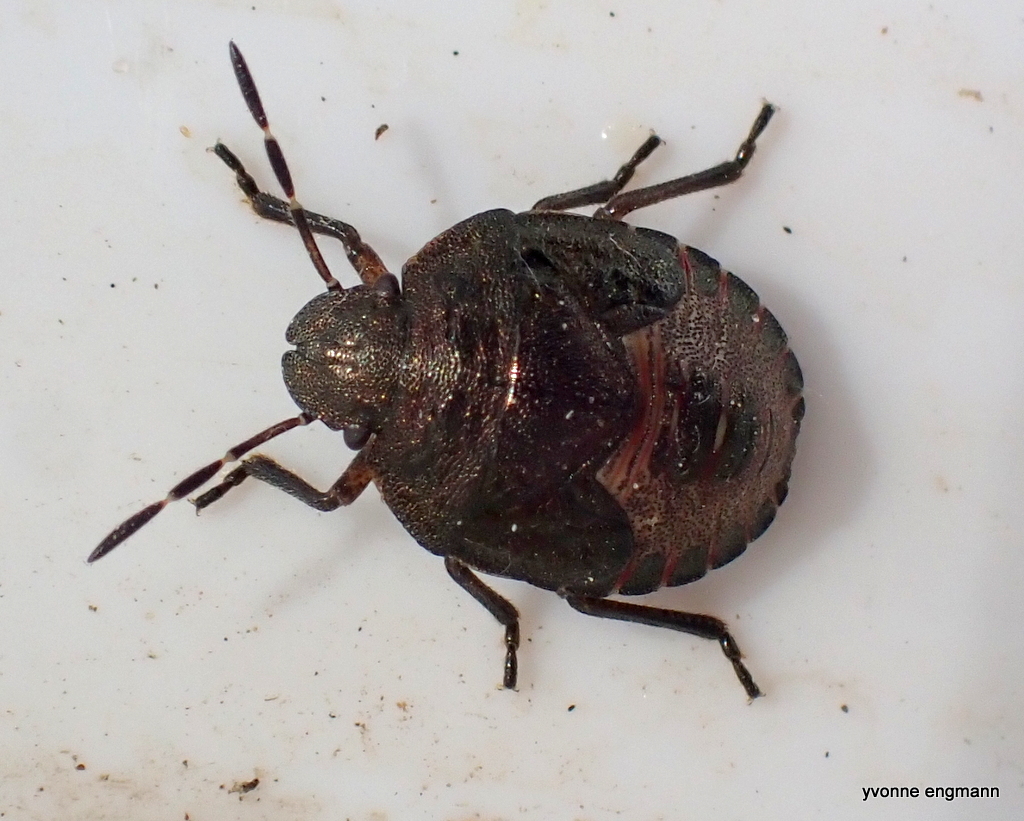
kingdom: Animalia
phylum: Arthropoda
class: Insecta
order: Hemiptera
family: Pentatomidae
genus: Holcostethus
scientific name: Holcostethus strictus
